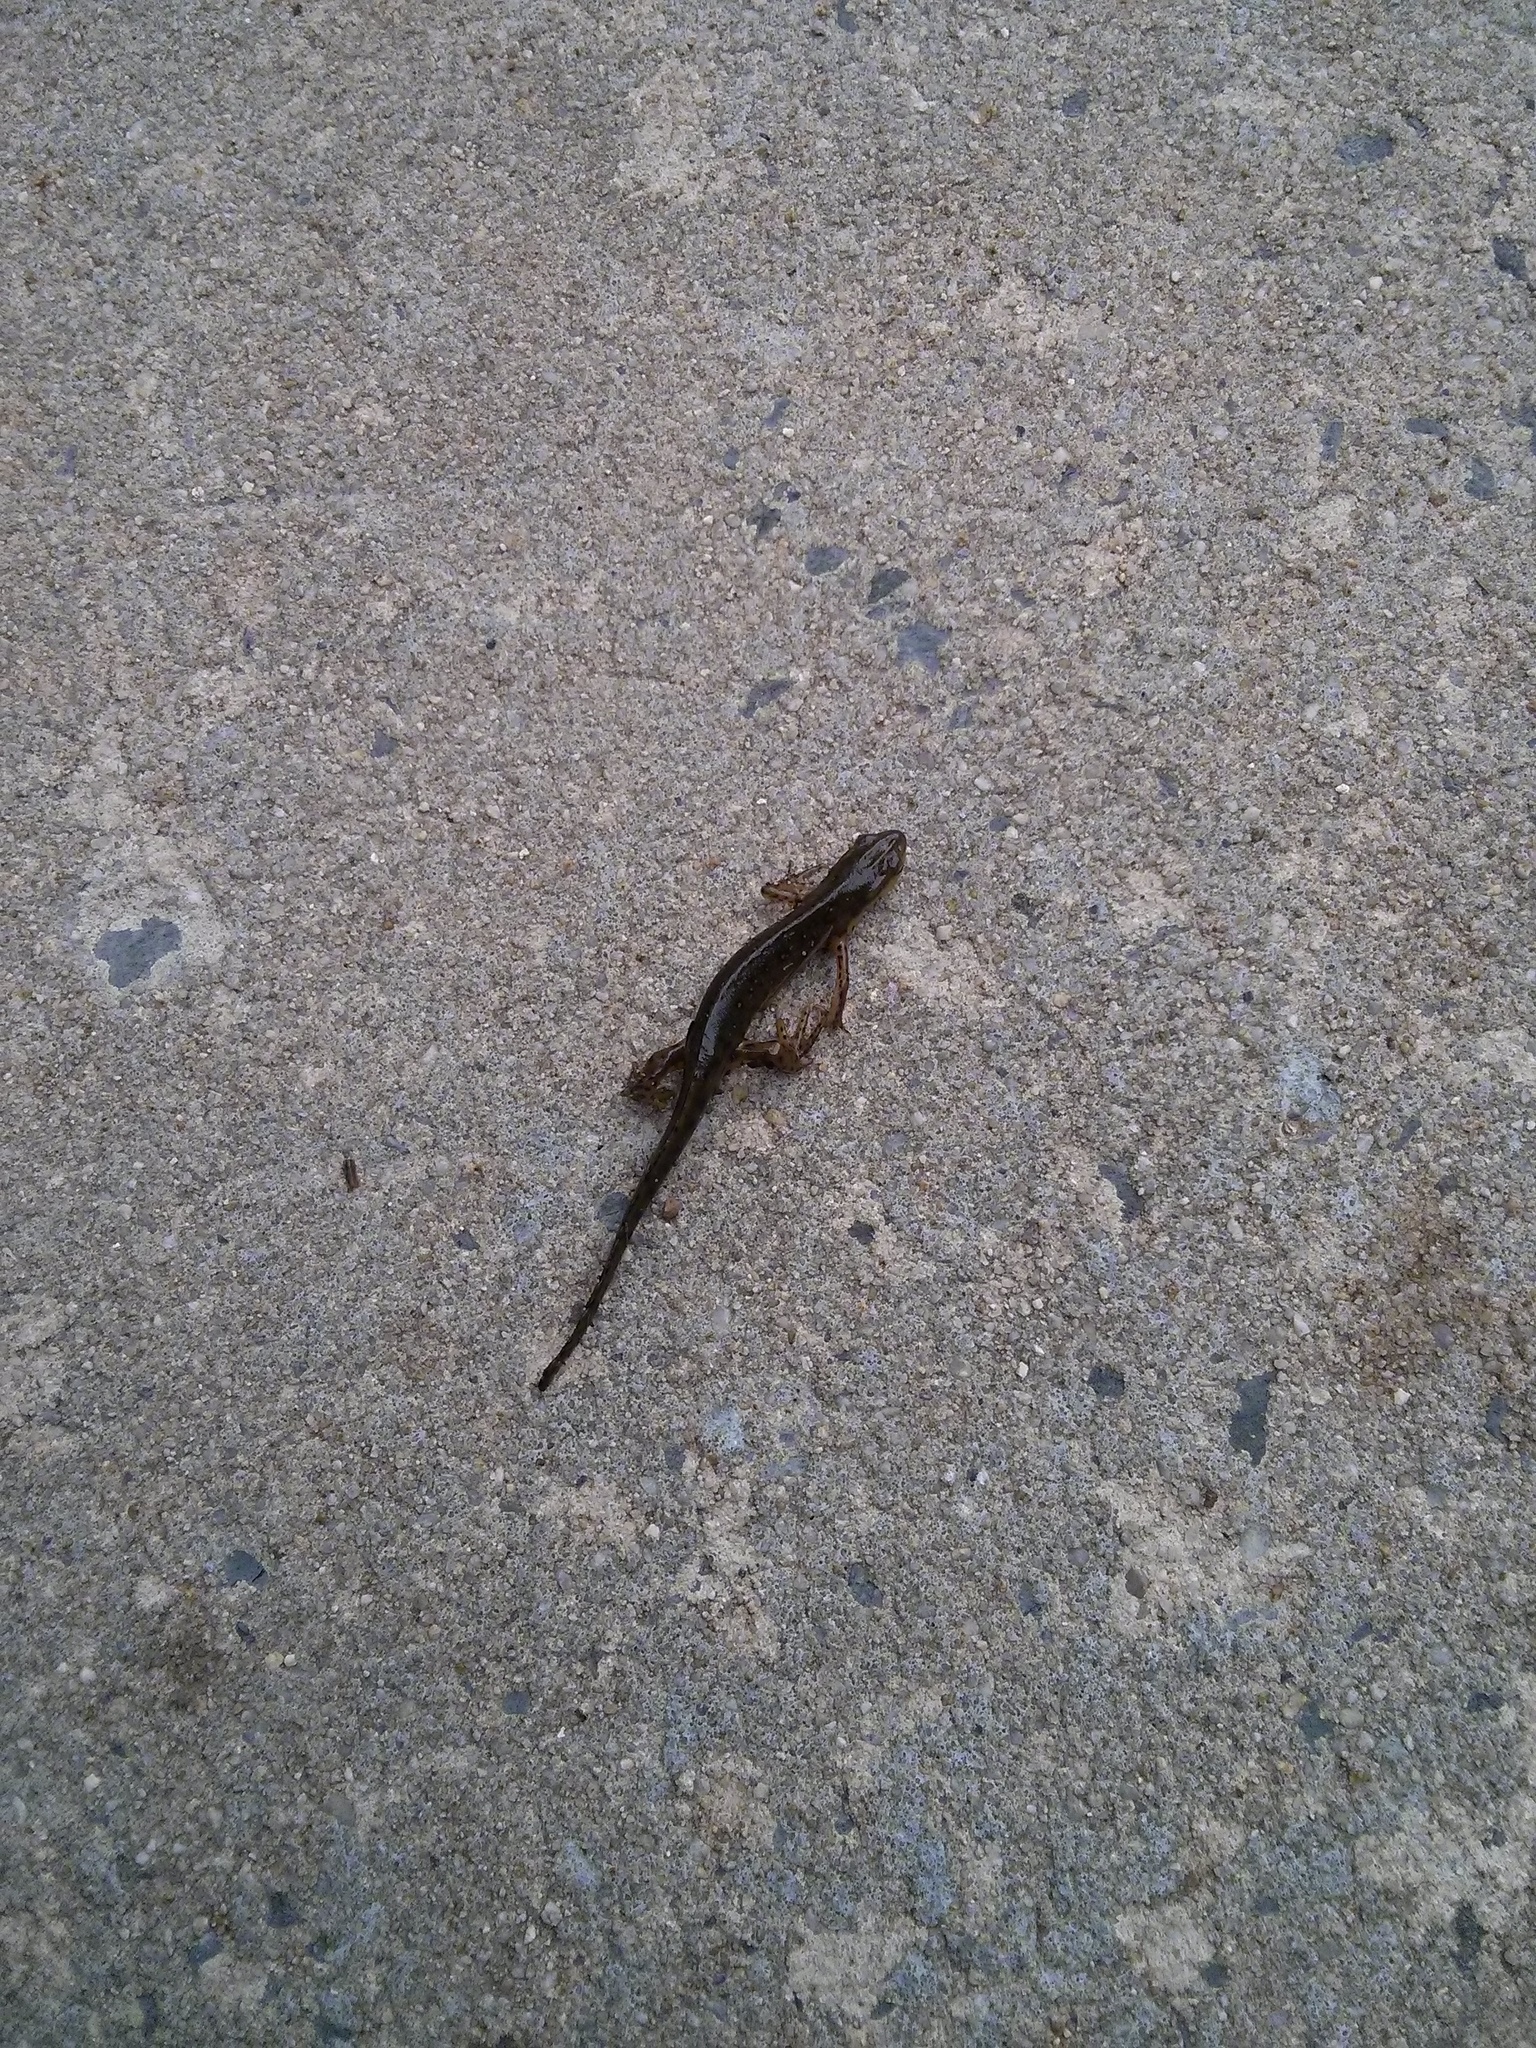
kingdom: Animalia
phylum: Chordata
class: Amphibia
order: Caudata
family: Salamandridae
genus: Notophthalmus
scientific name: Notophthalmus viridescens
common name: Eastern newt
